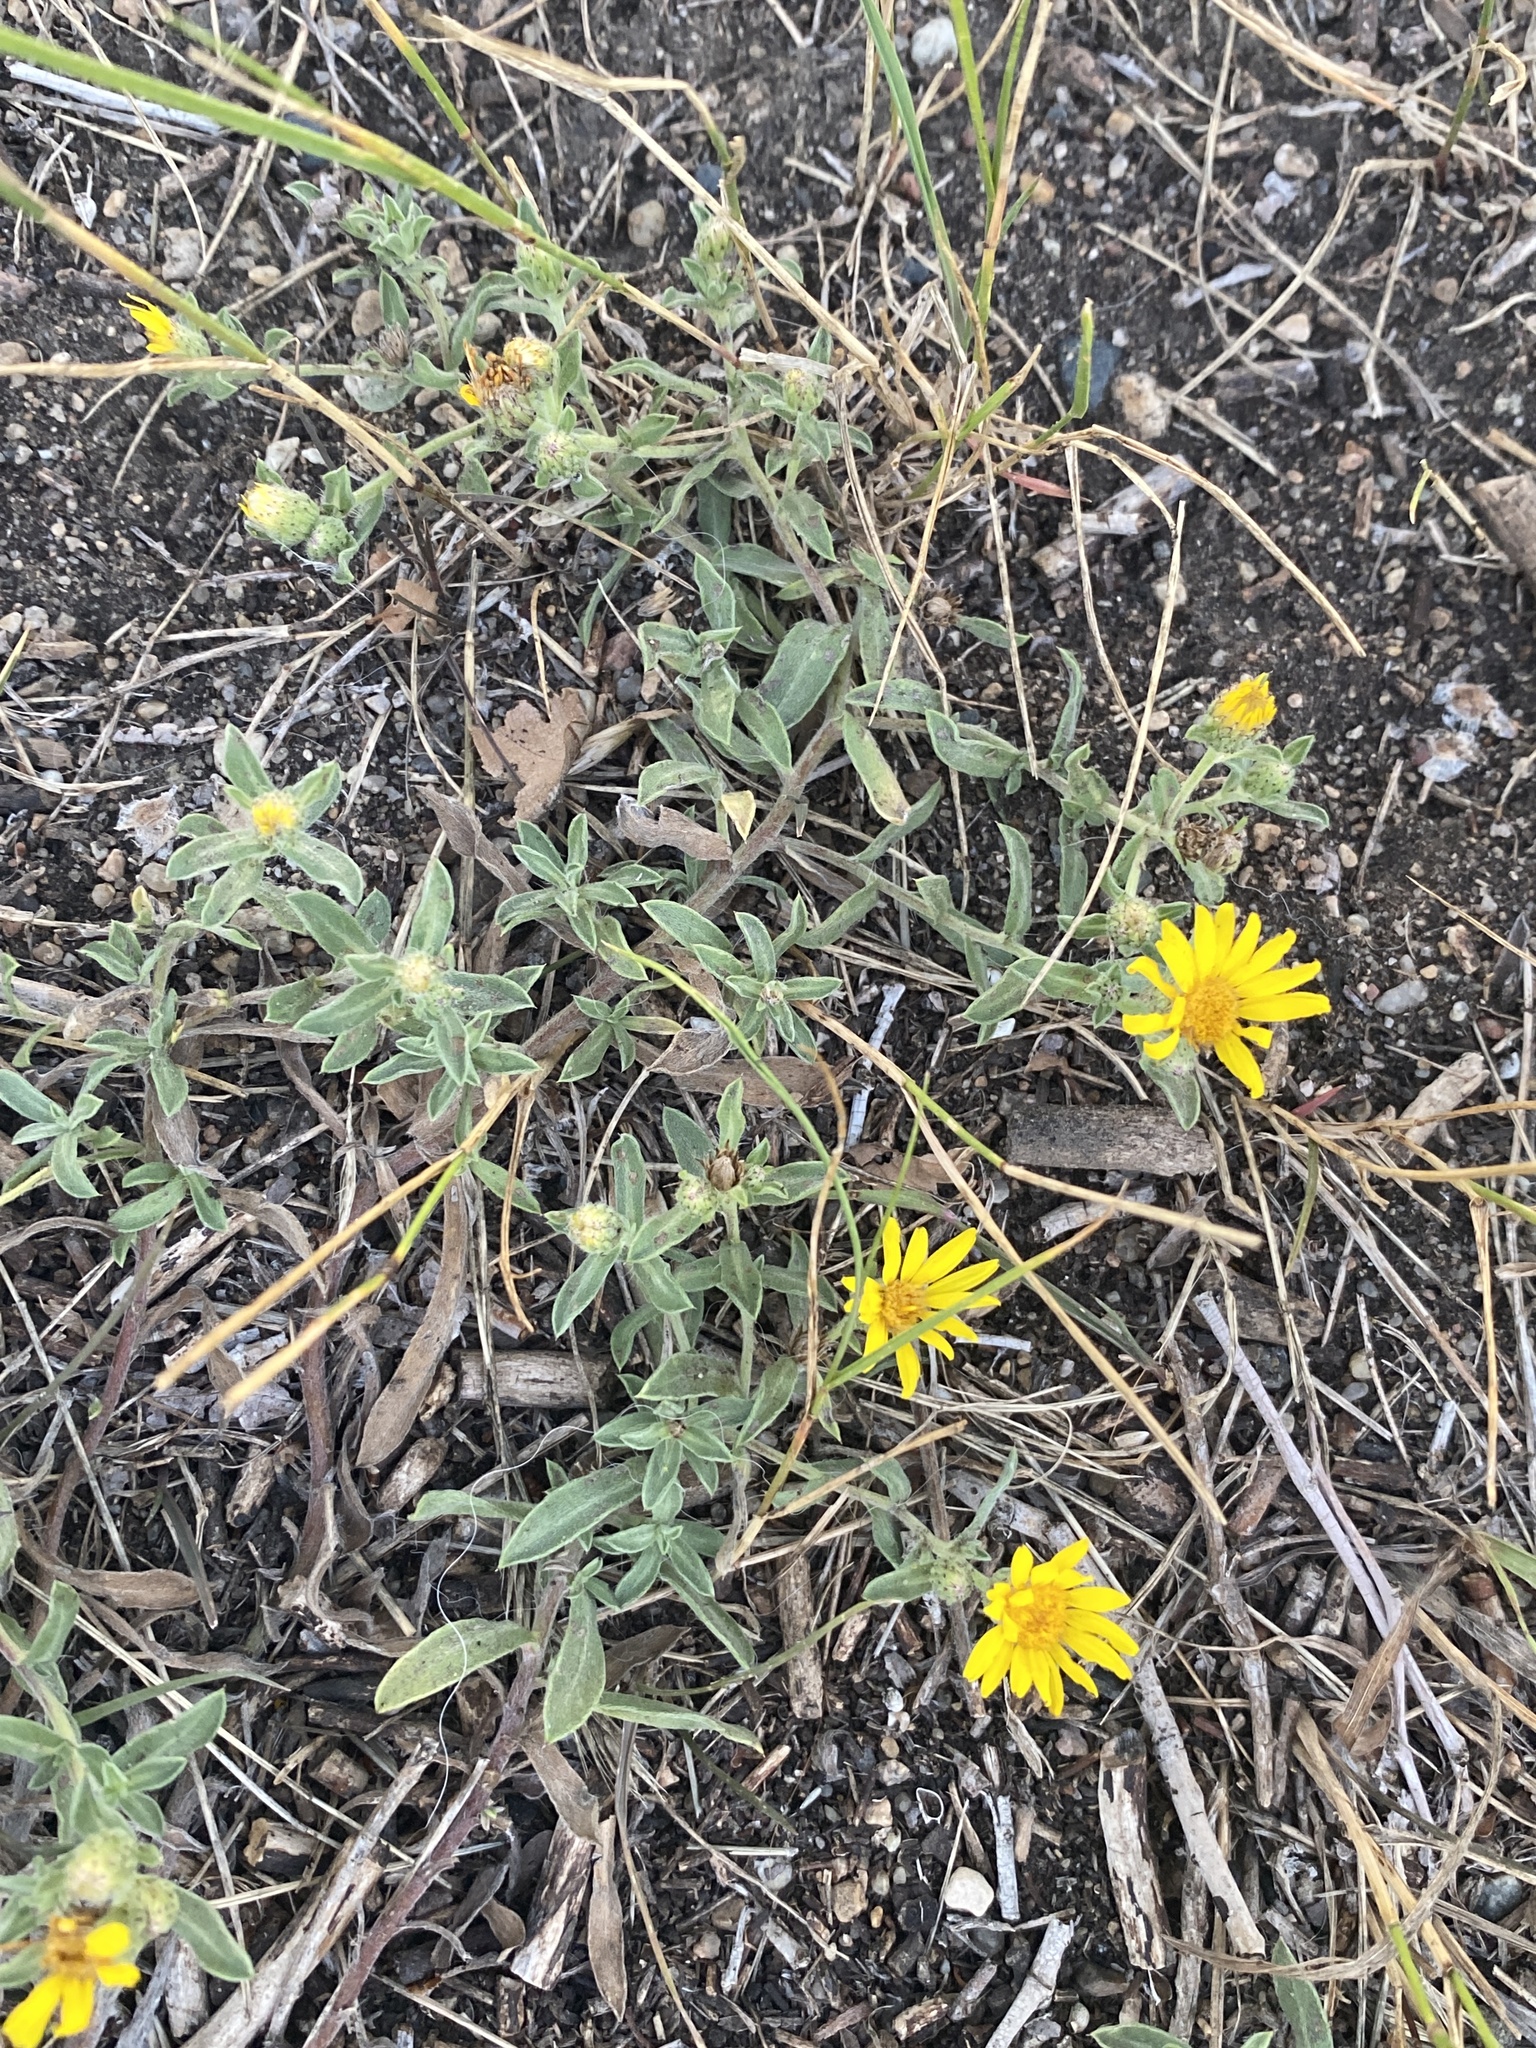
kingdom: Plantae
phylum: Tracheophyta
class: Magnoliopsida
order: Asterales
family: Asteraceae
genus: Heterotheca
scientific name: Heterotheca villosa
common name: Hairy false goldenaster
